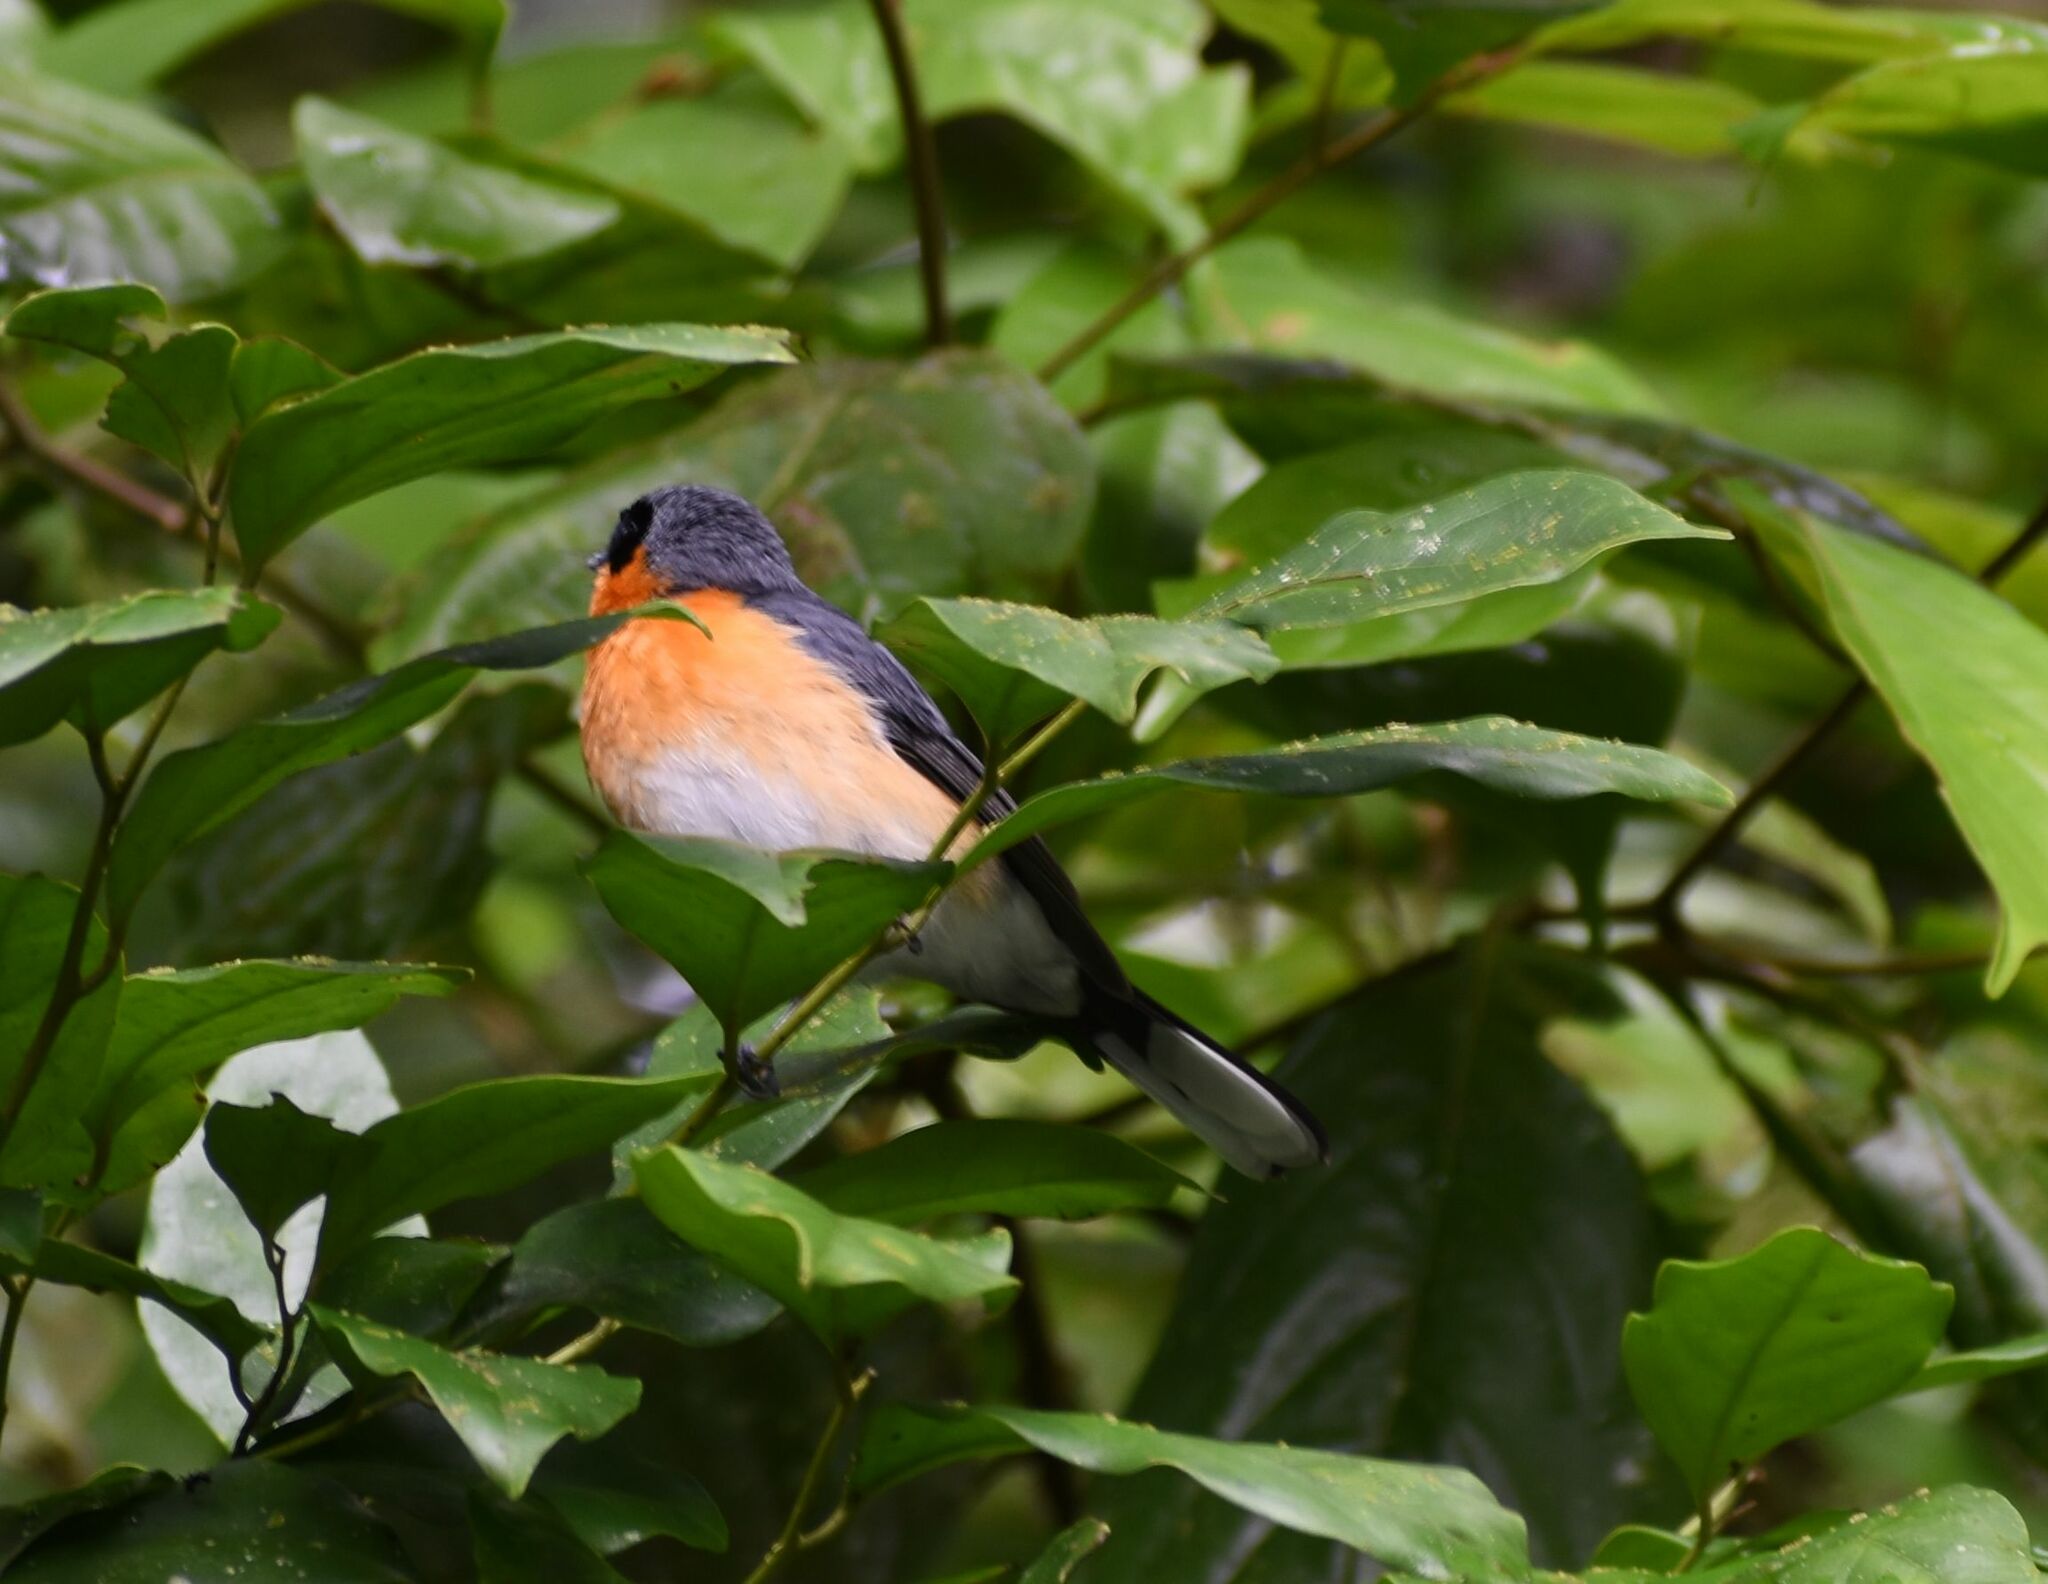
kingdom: Animalia
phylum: Chordata
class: Aves
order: Passeriformes
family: Monarchidae
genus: Symposiachrus
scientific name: Symposiachrus trivirgatus
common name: Spectacled monarch
